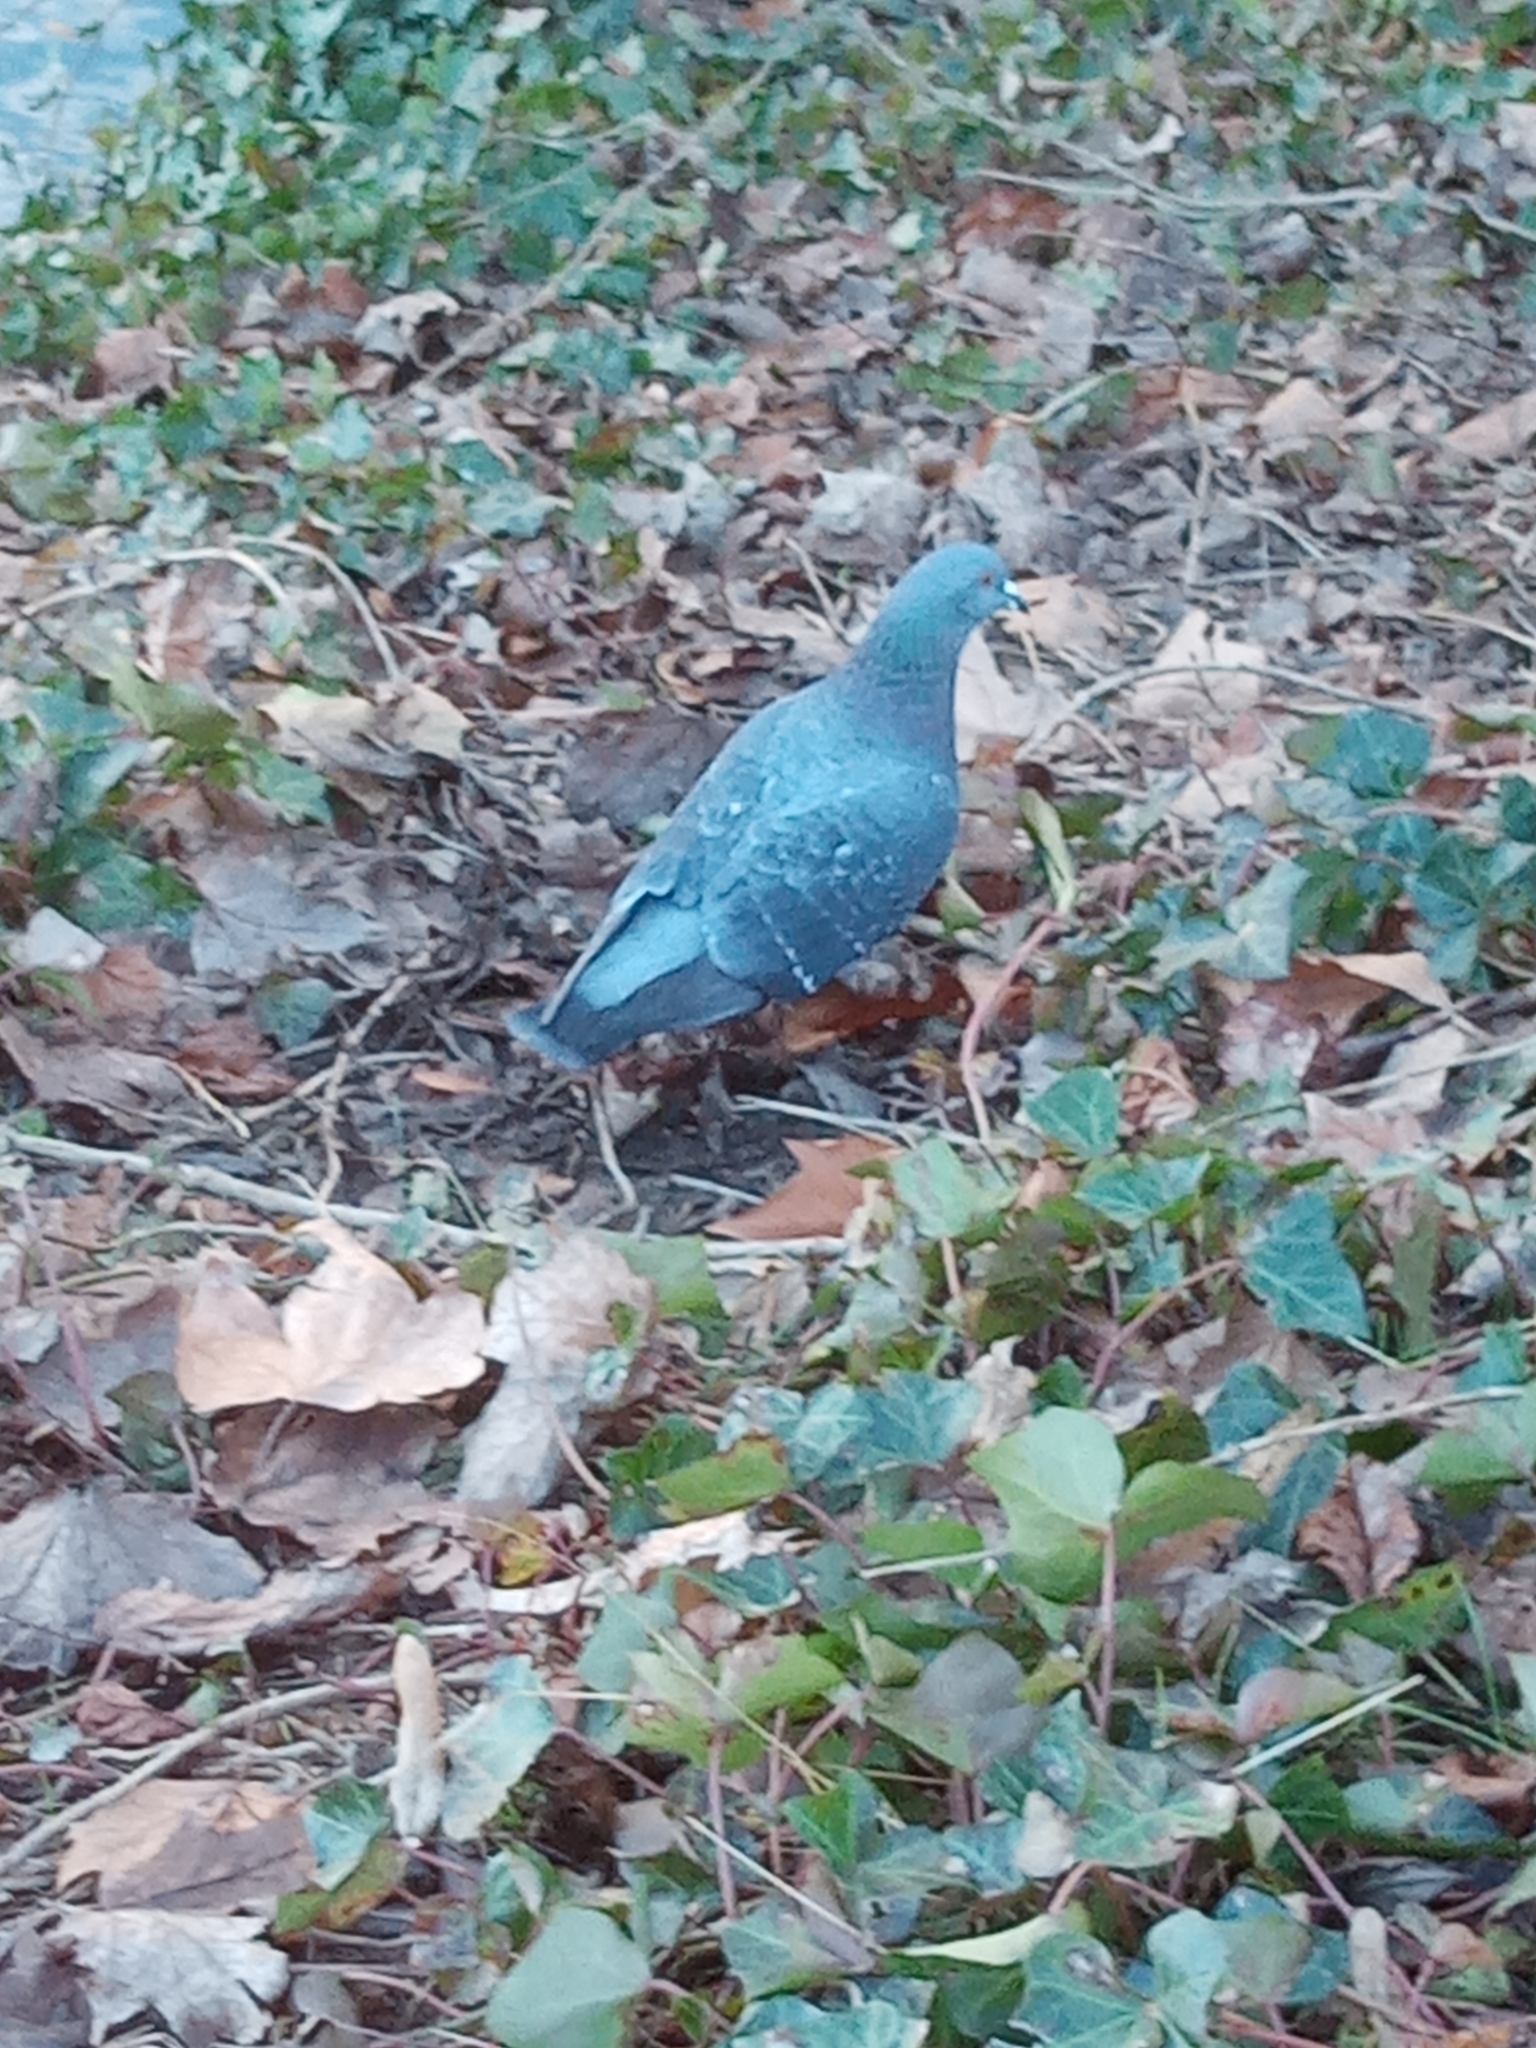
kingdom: Animalia
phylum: Chordata
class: Aves
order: Columbiformes
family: Columbidae
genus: Columba
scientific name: Columba livia
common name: Rock pigeon
